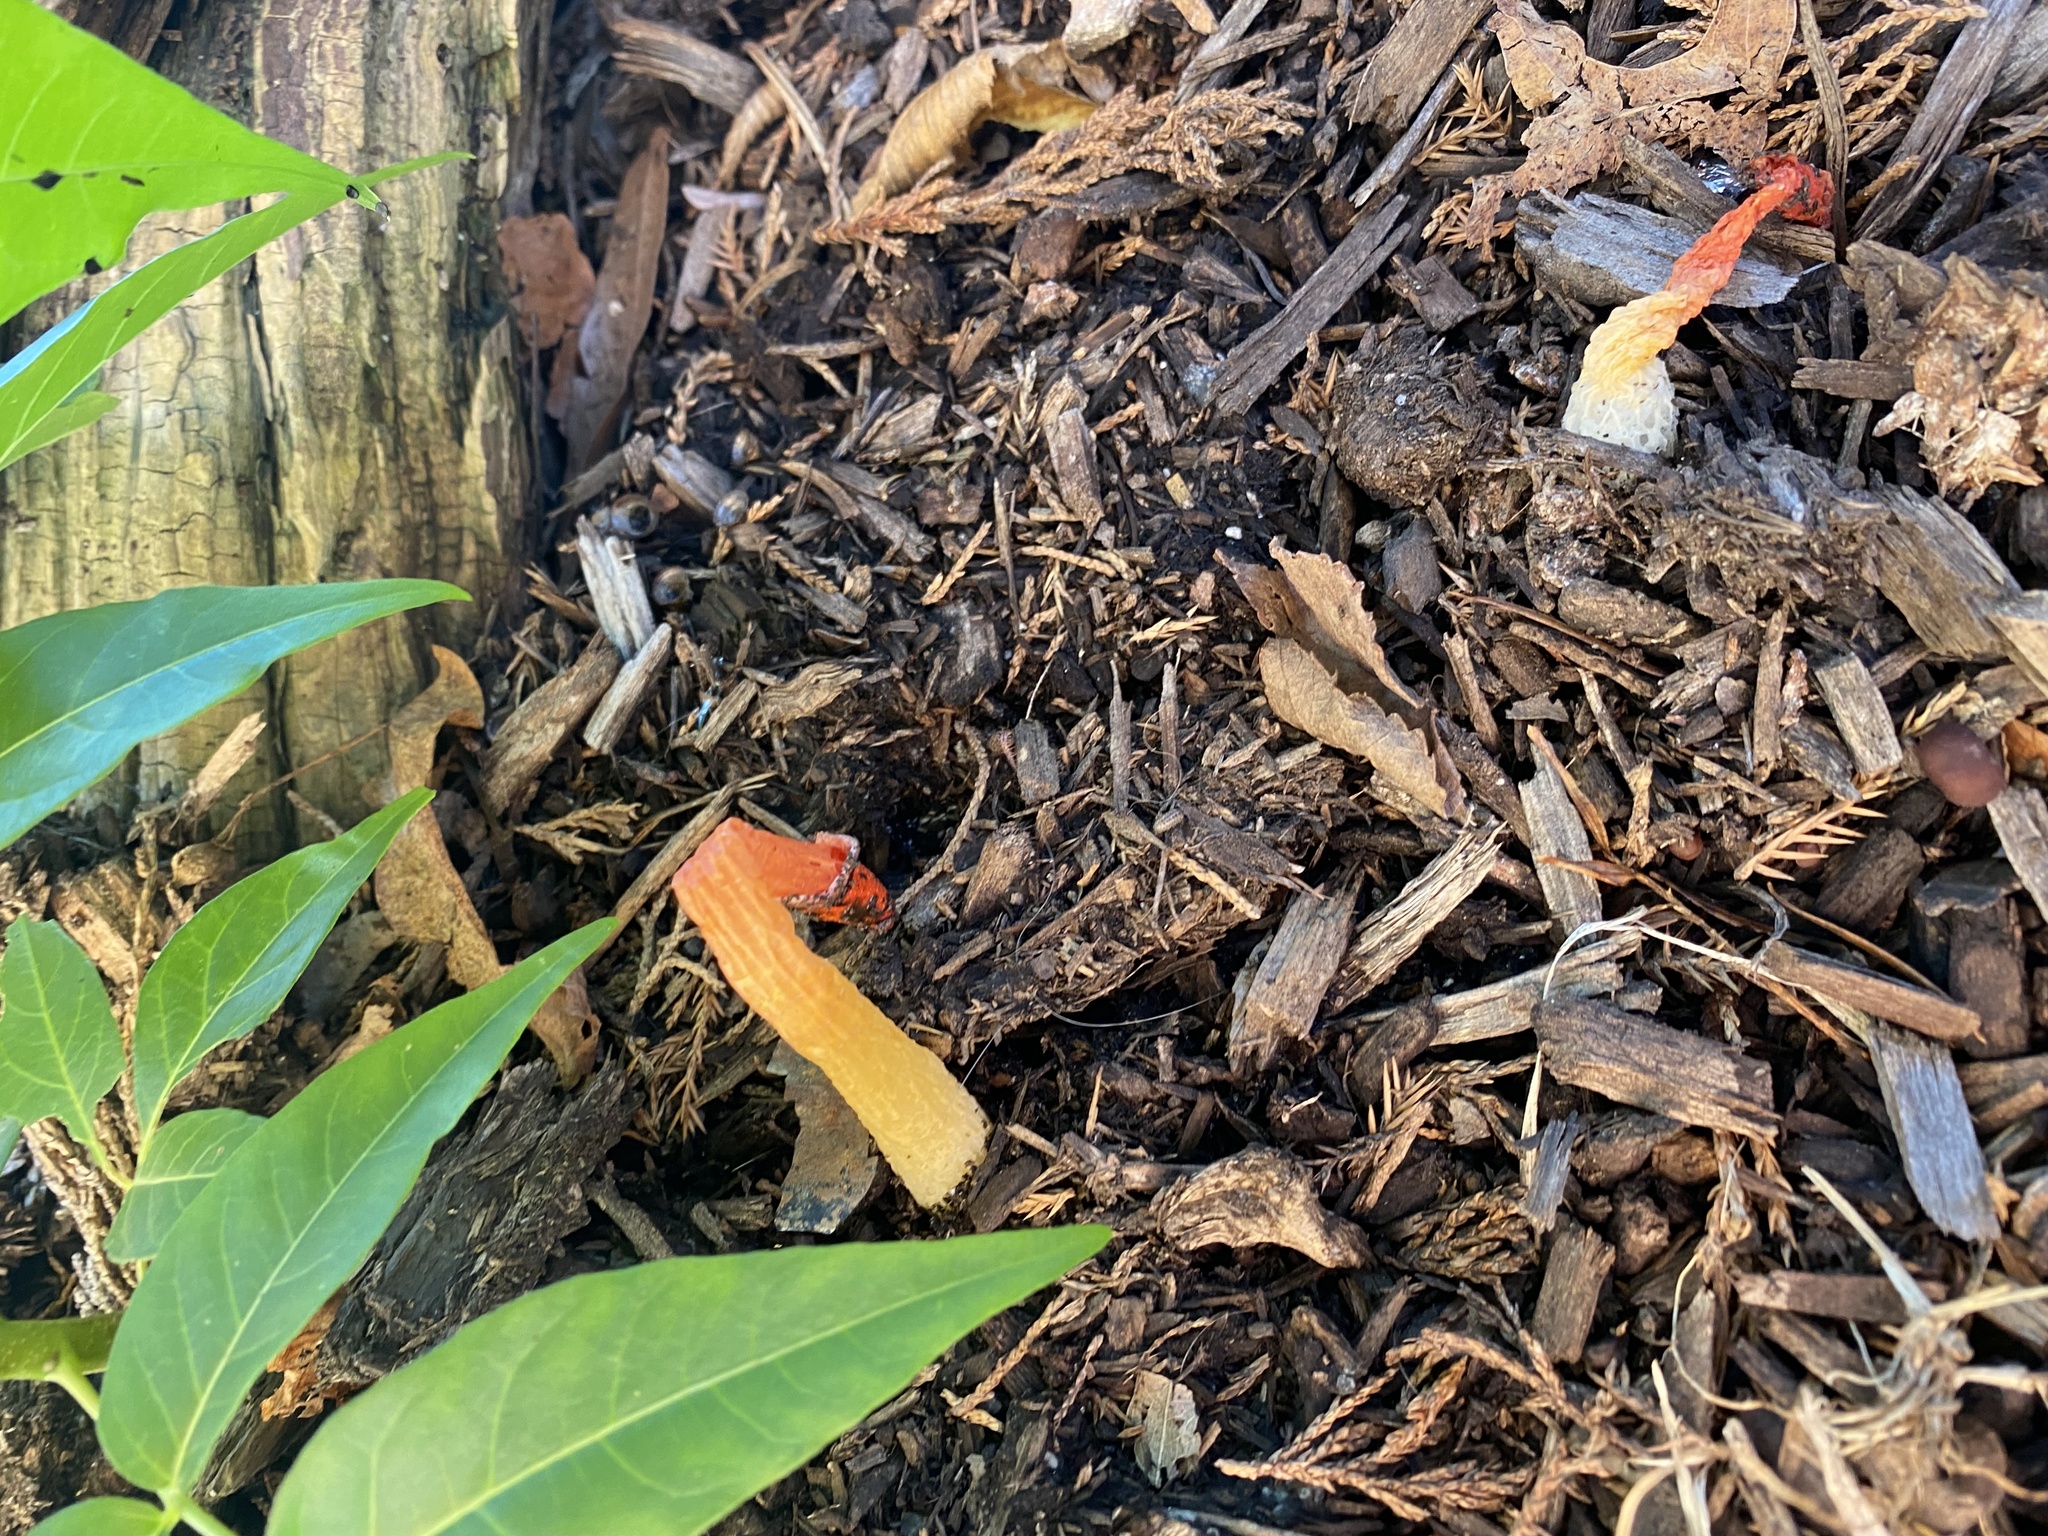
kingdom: Fungi
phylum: Basidiomycota
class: Agaricomycetes
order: Phallales
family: Phallaceae
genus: Phallus
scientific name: Phallus rugulosus
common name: Wrinkly stinkhorn
